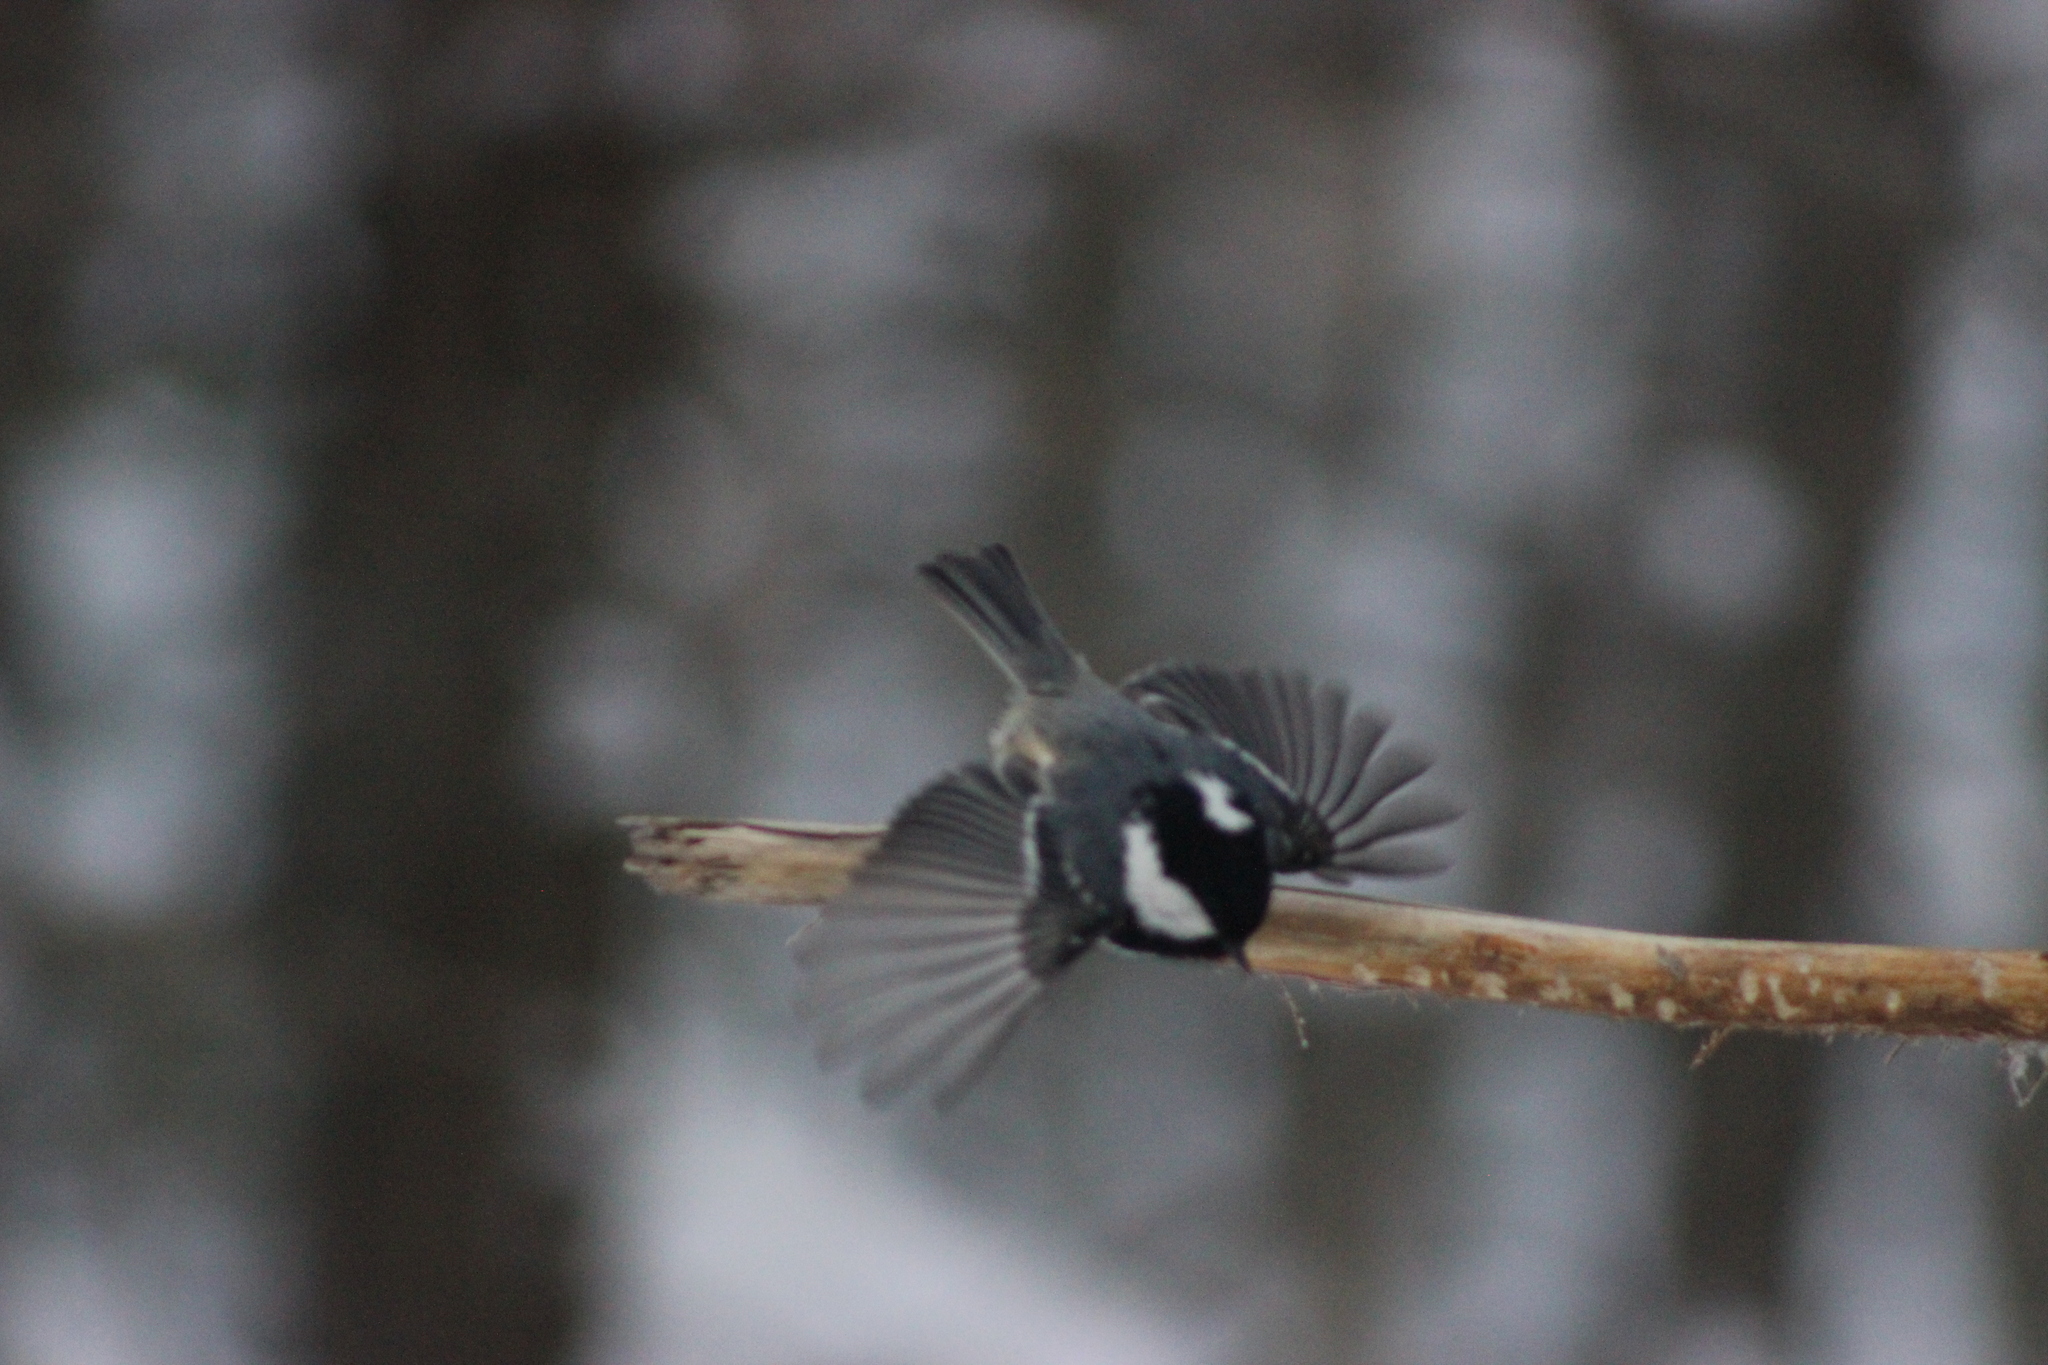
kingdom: Animalia
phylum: Chordata
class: Aves
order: Passeriformes
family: Paridae
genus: Periparus
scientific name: Periparus ater
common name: Coal tit
